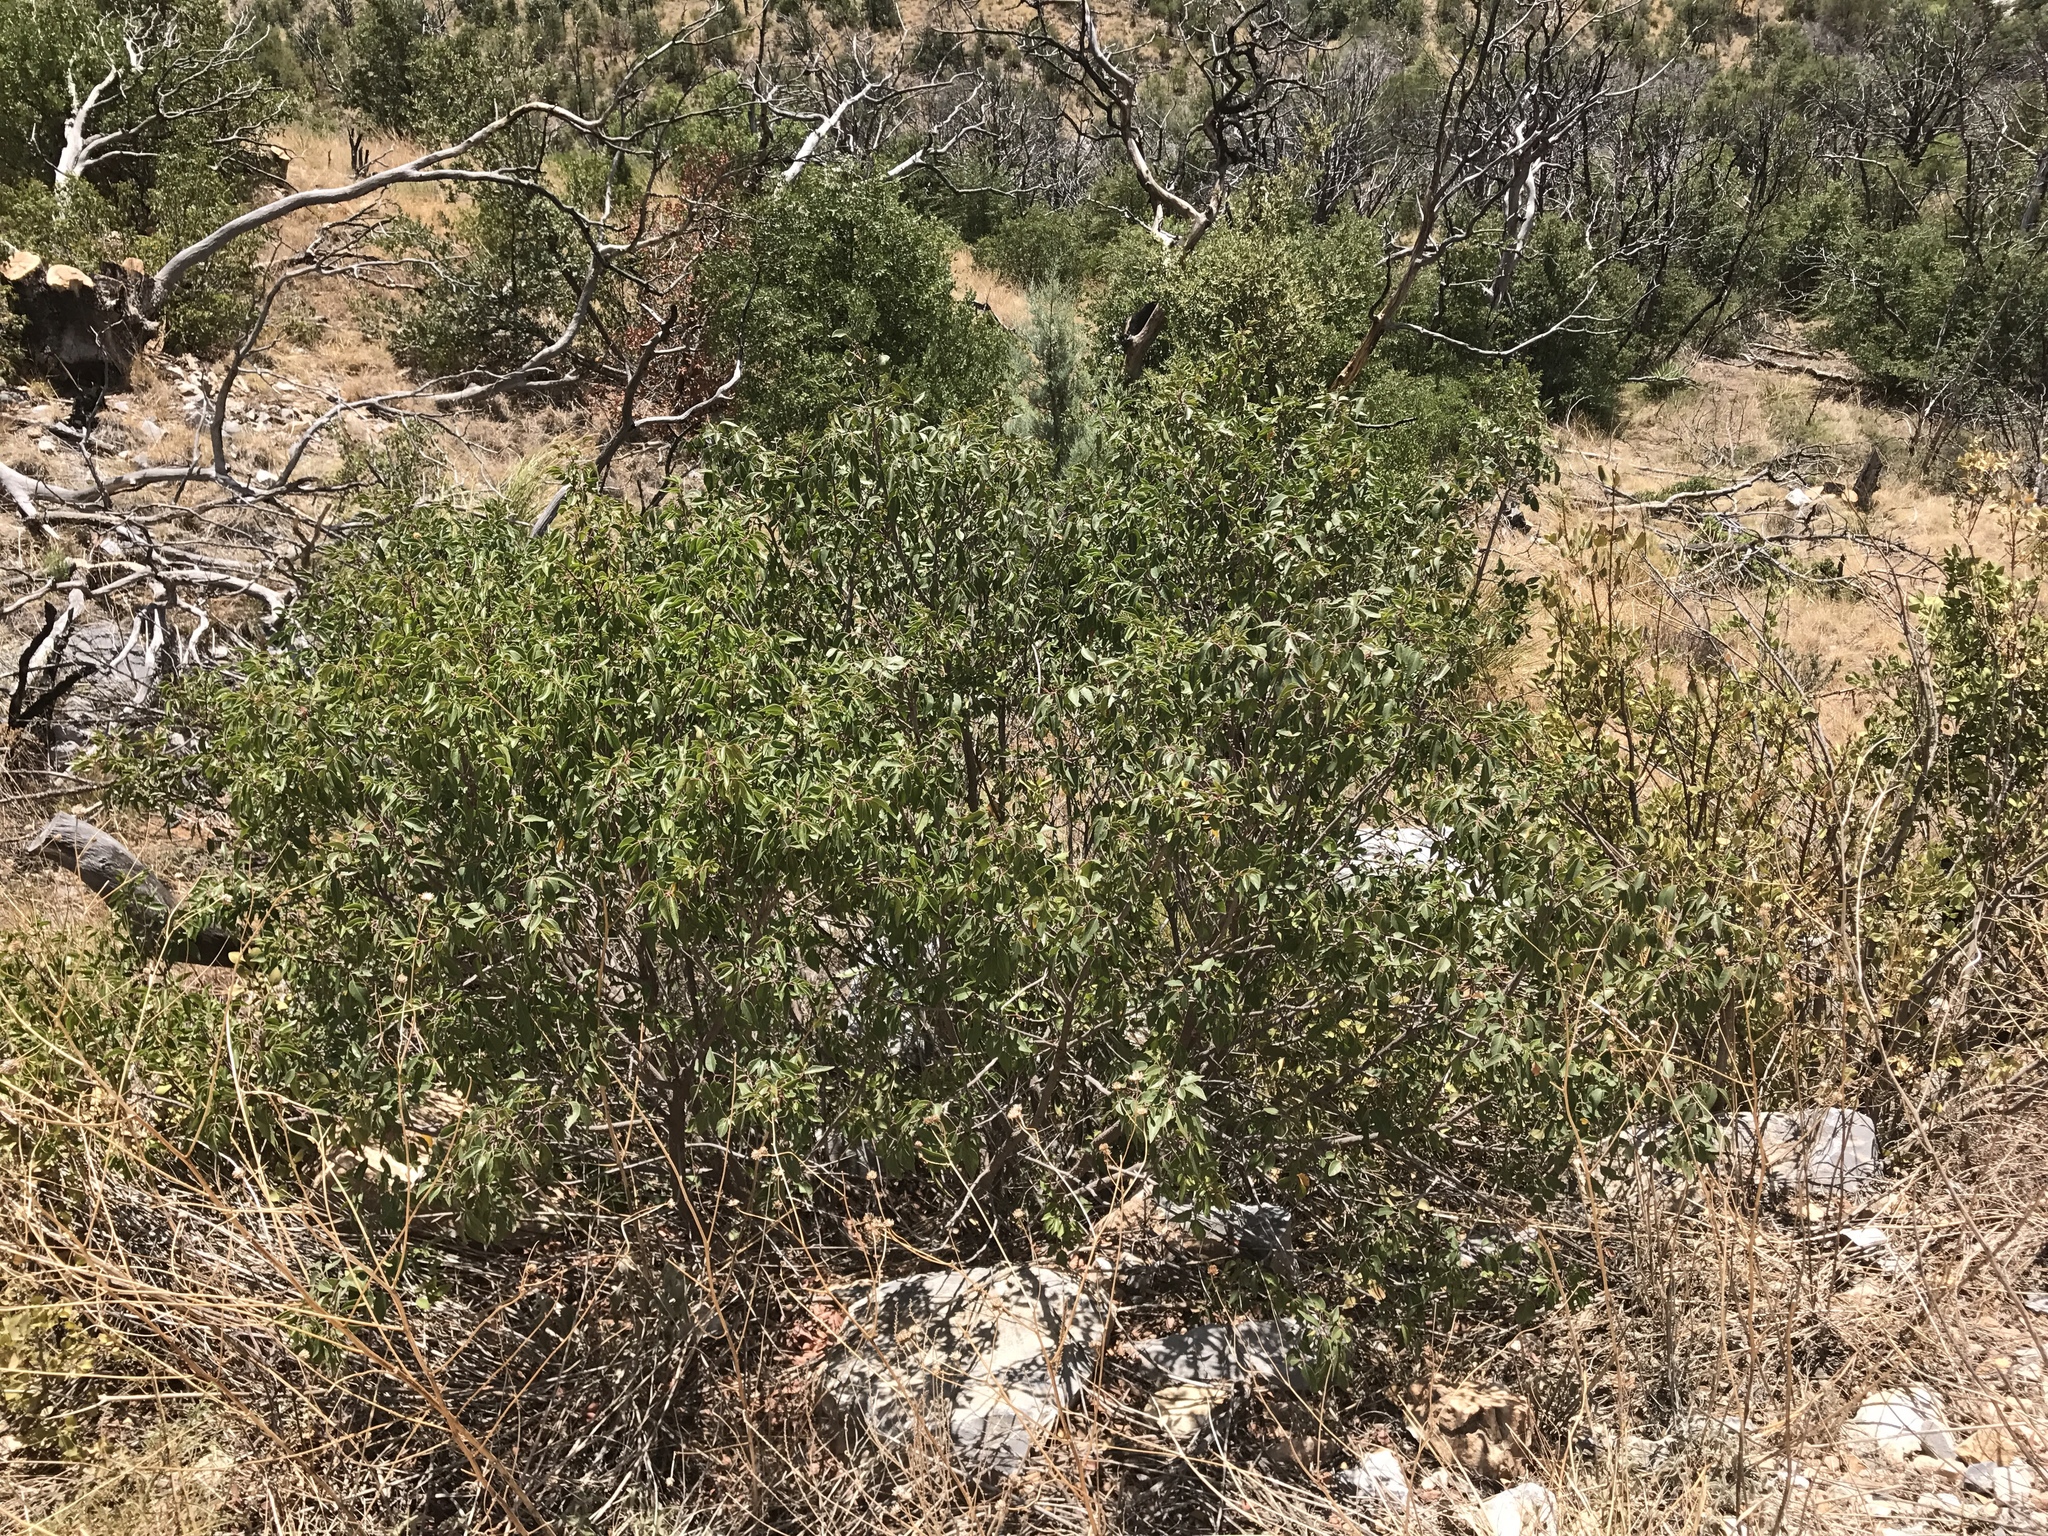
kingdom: Plantae
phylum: Tracheophyta
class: Magnoliopsida
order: Sapindales
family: Anacardiaceae
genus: Rhus
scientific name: Rhus virens
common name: Evergreen sumac
